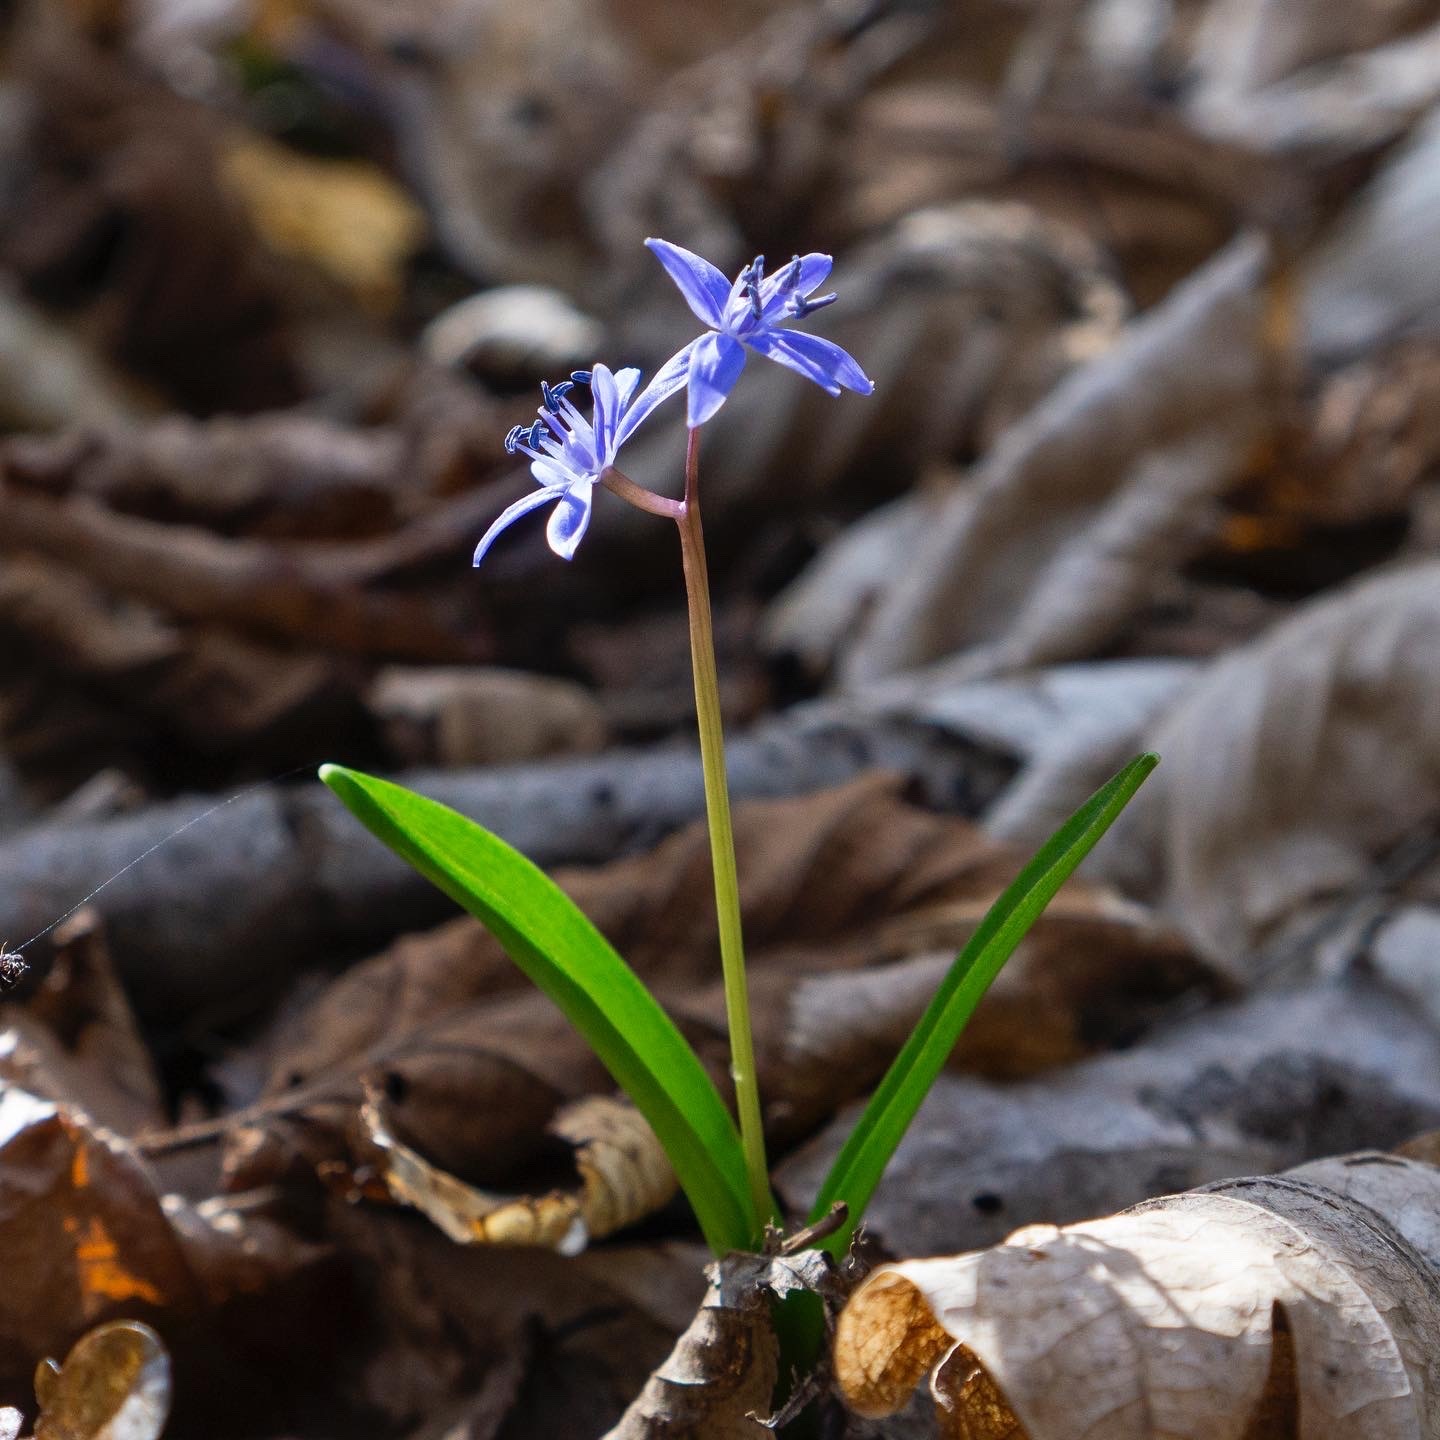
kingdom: Plantae
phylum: Tracheophyta
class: Liliopsida
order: Asparagales
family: Asparagaceae
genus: Scilla
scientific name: Scilla bifolia
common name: Alpine squill
